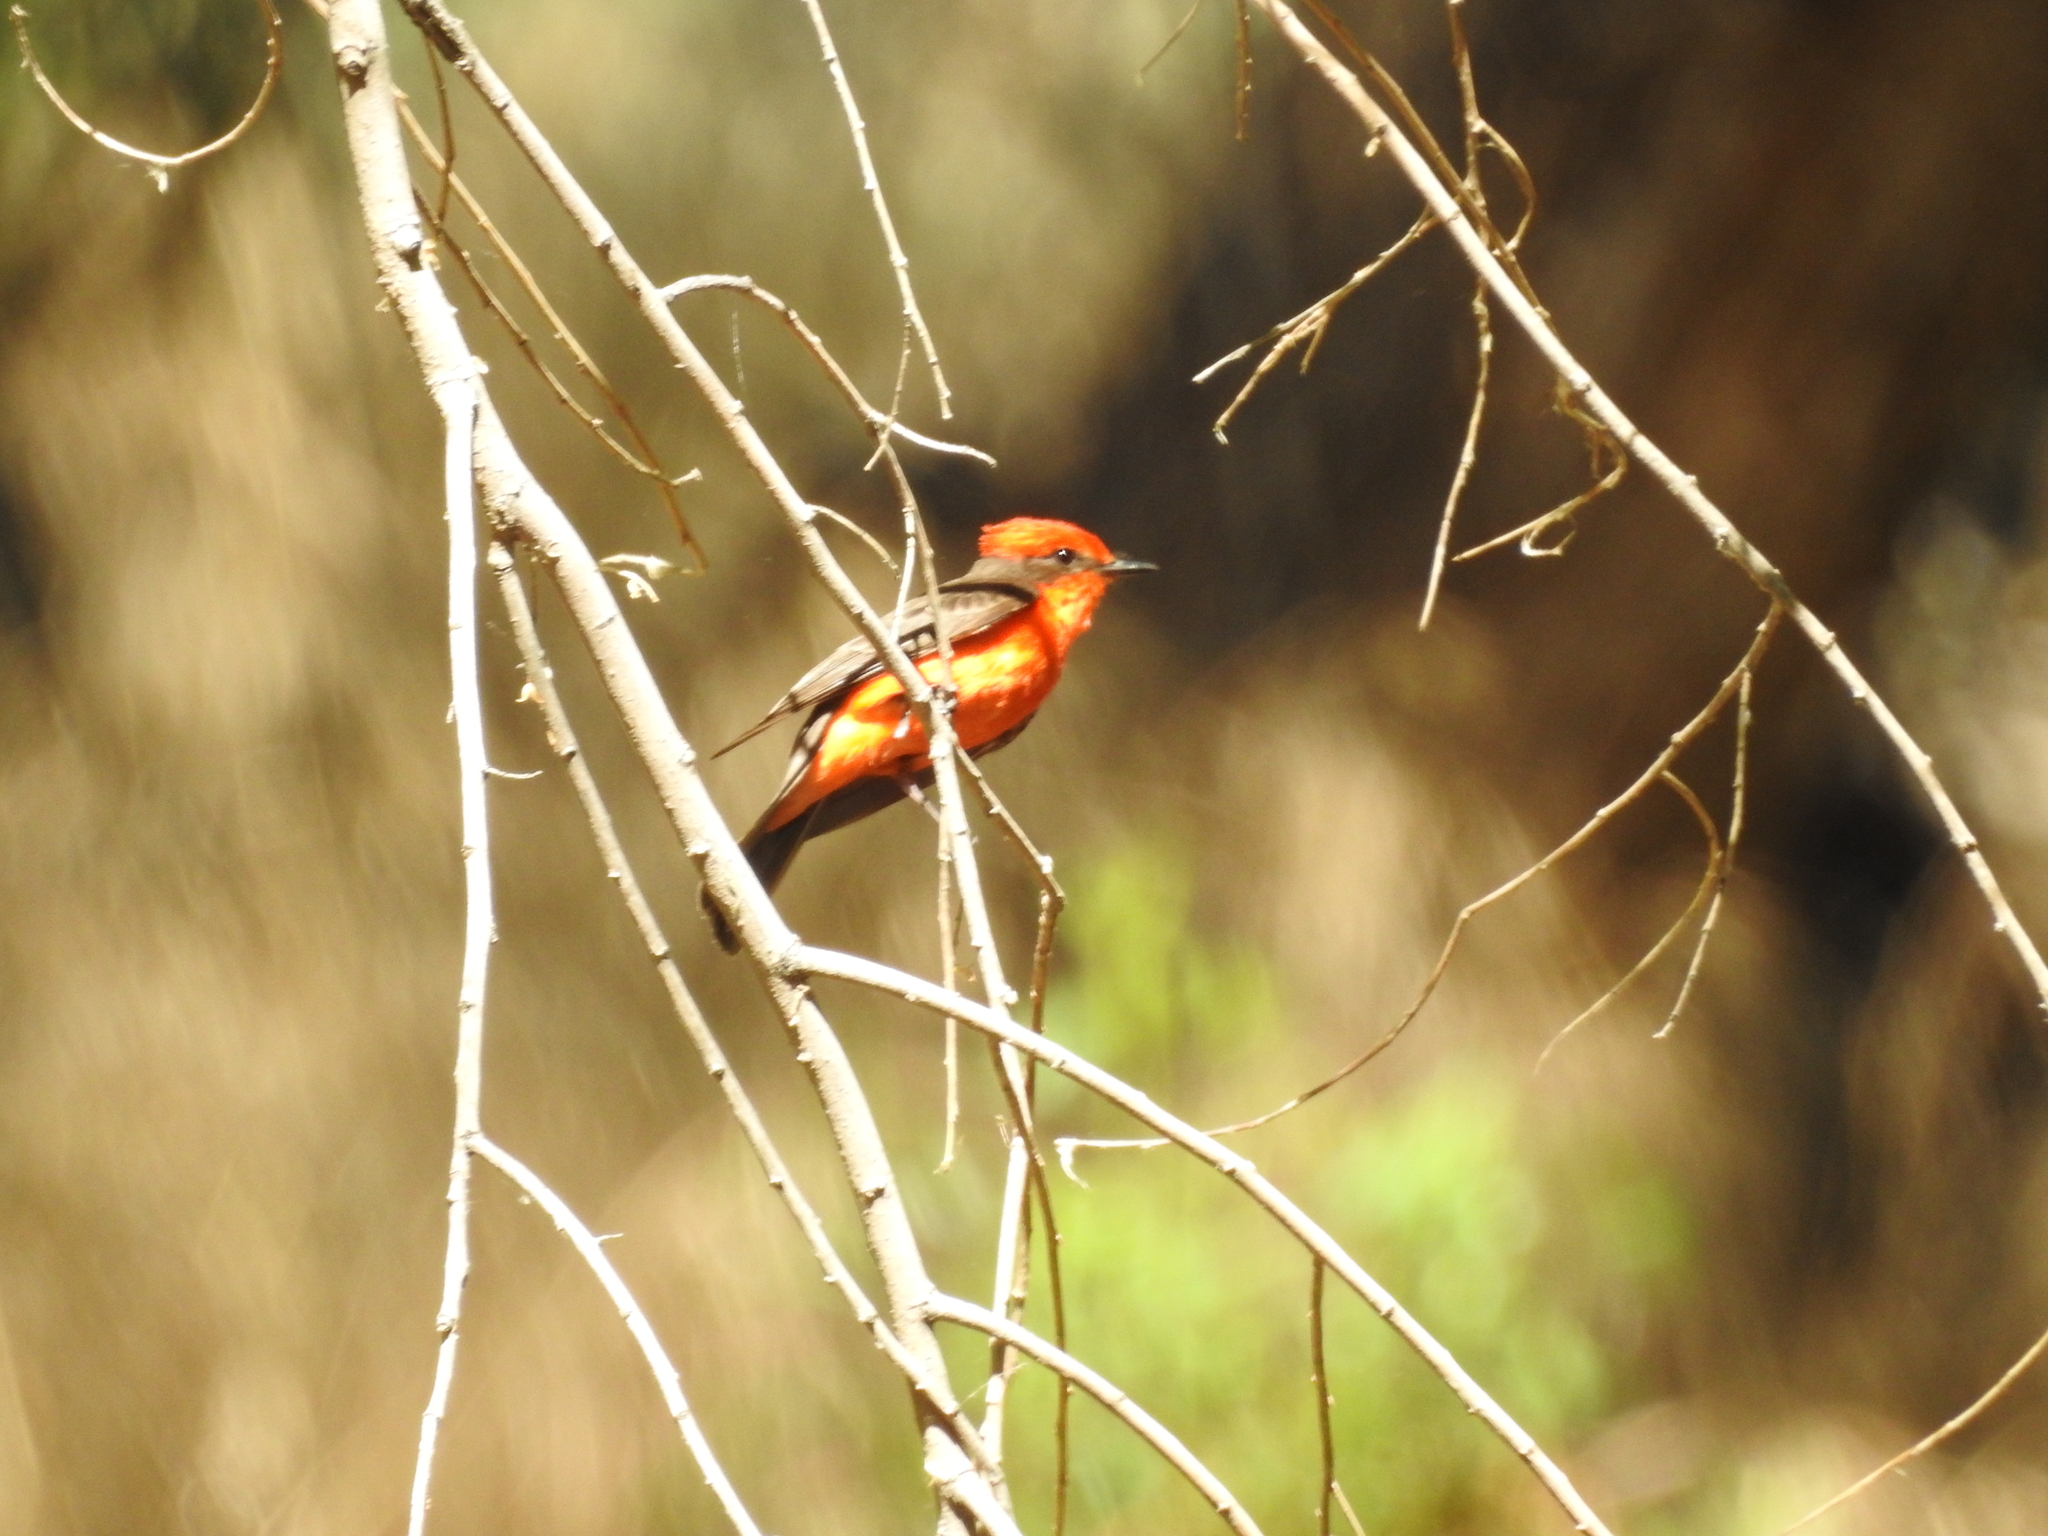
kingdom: Animalia
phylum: Chordata
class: Aves
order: Passeriformes
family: Tyrannidae
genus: Pyrocephalus
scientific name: Pyrocephalus rubinus
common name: Vermilion flycatcher
